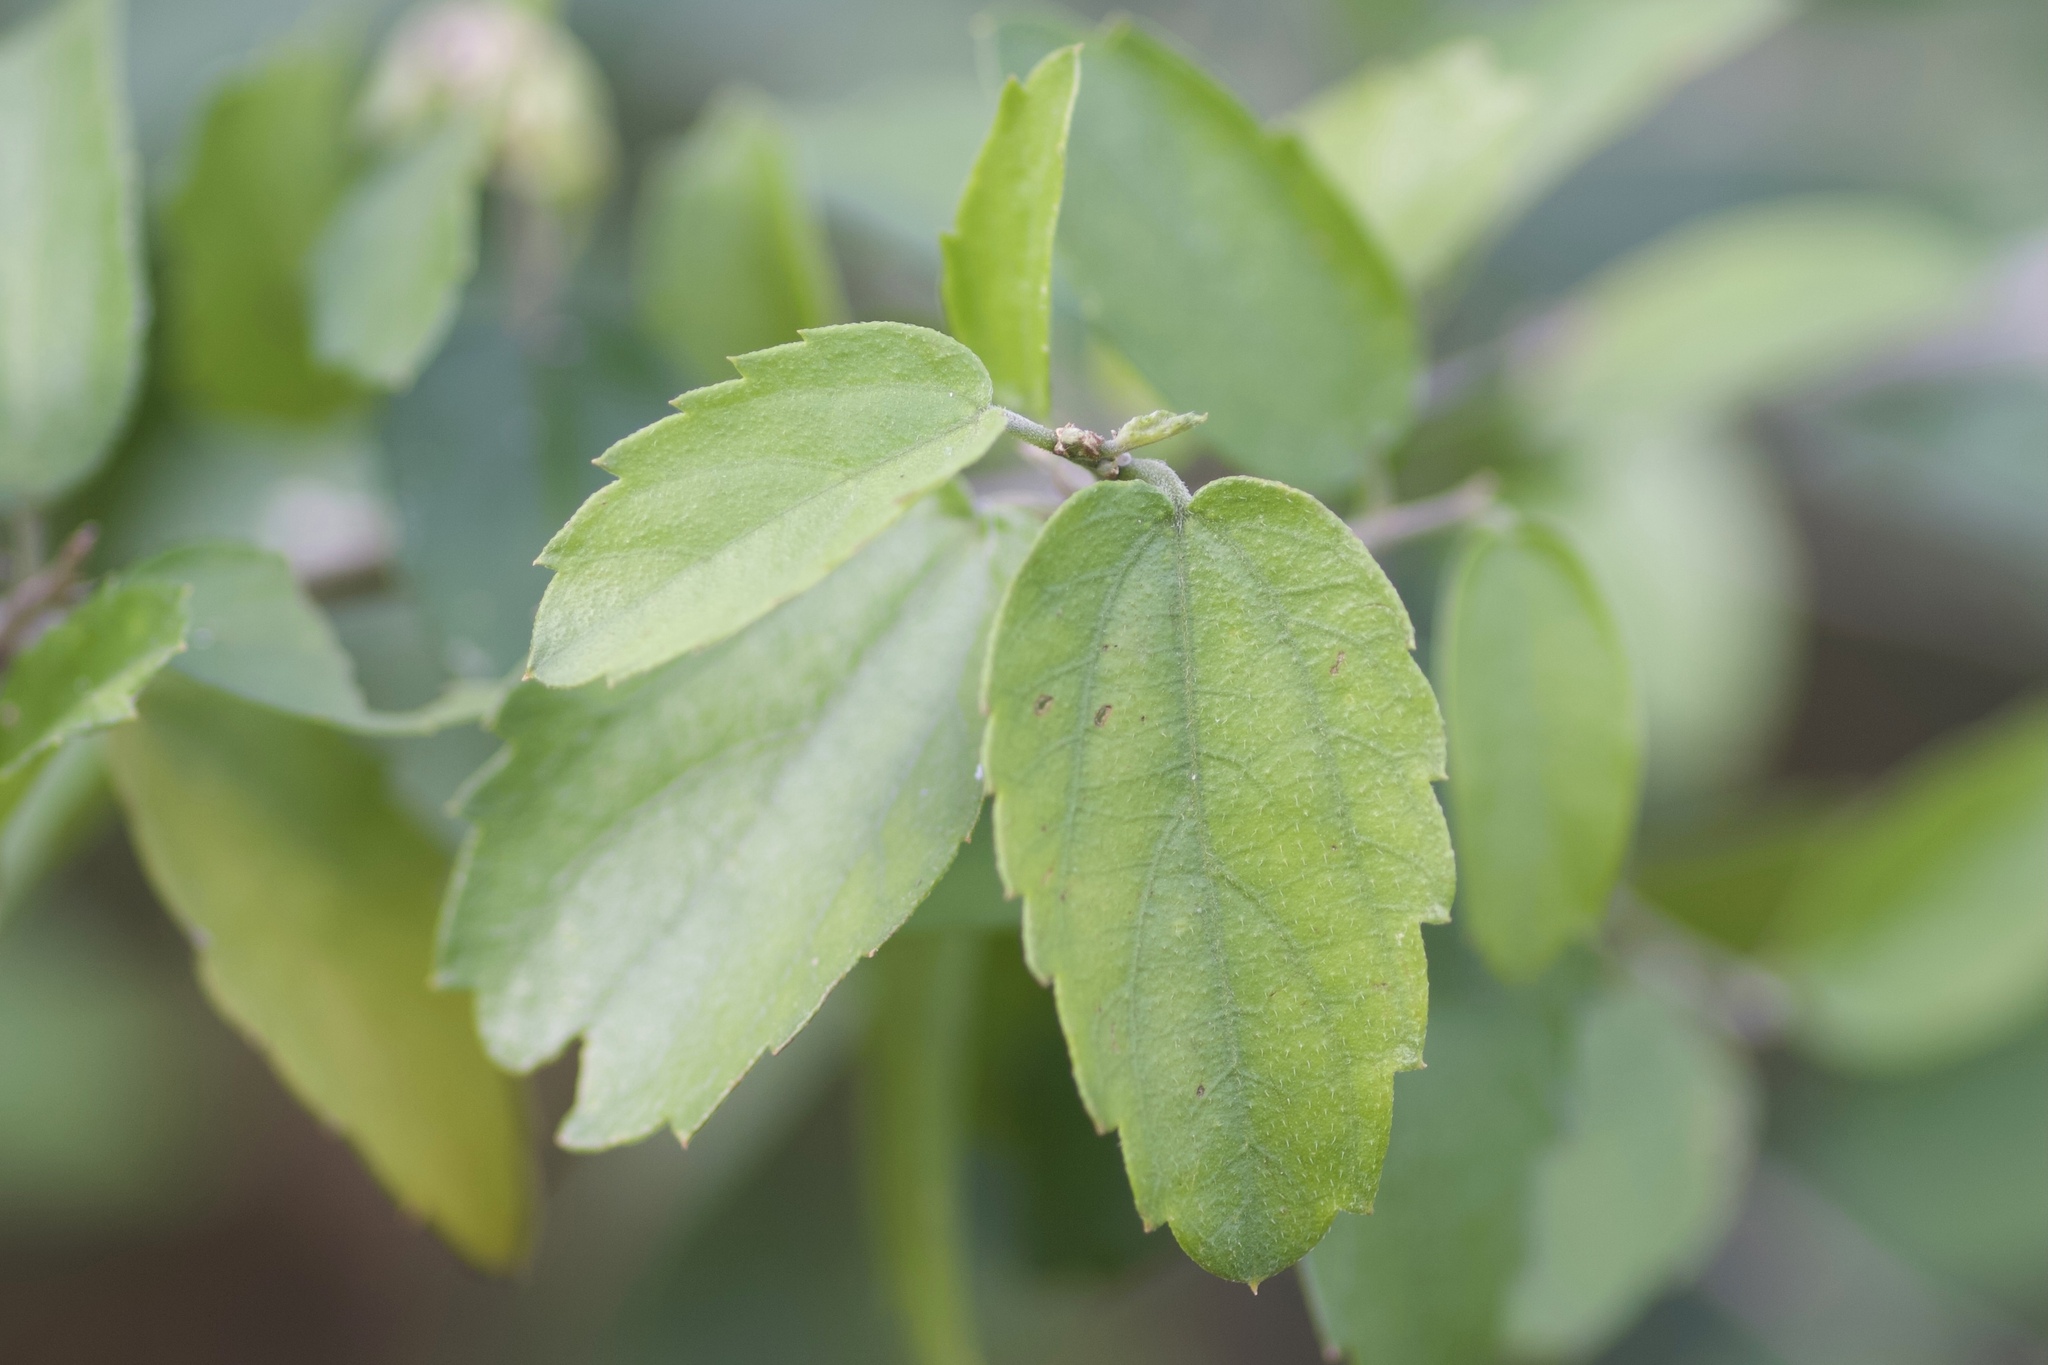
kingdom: Plantae
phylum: Tracheophyta
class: Magnoliopsida
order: Rosales
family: Cannabaceae
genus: Celtis
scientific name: Celtis pallida
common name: Desert hackberry
